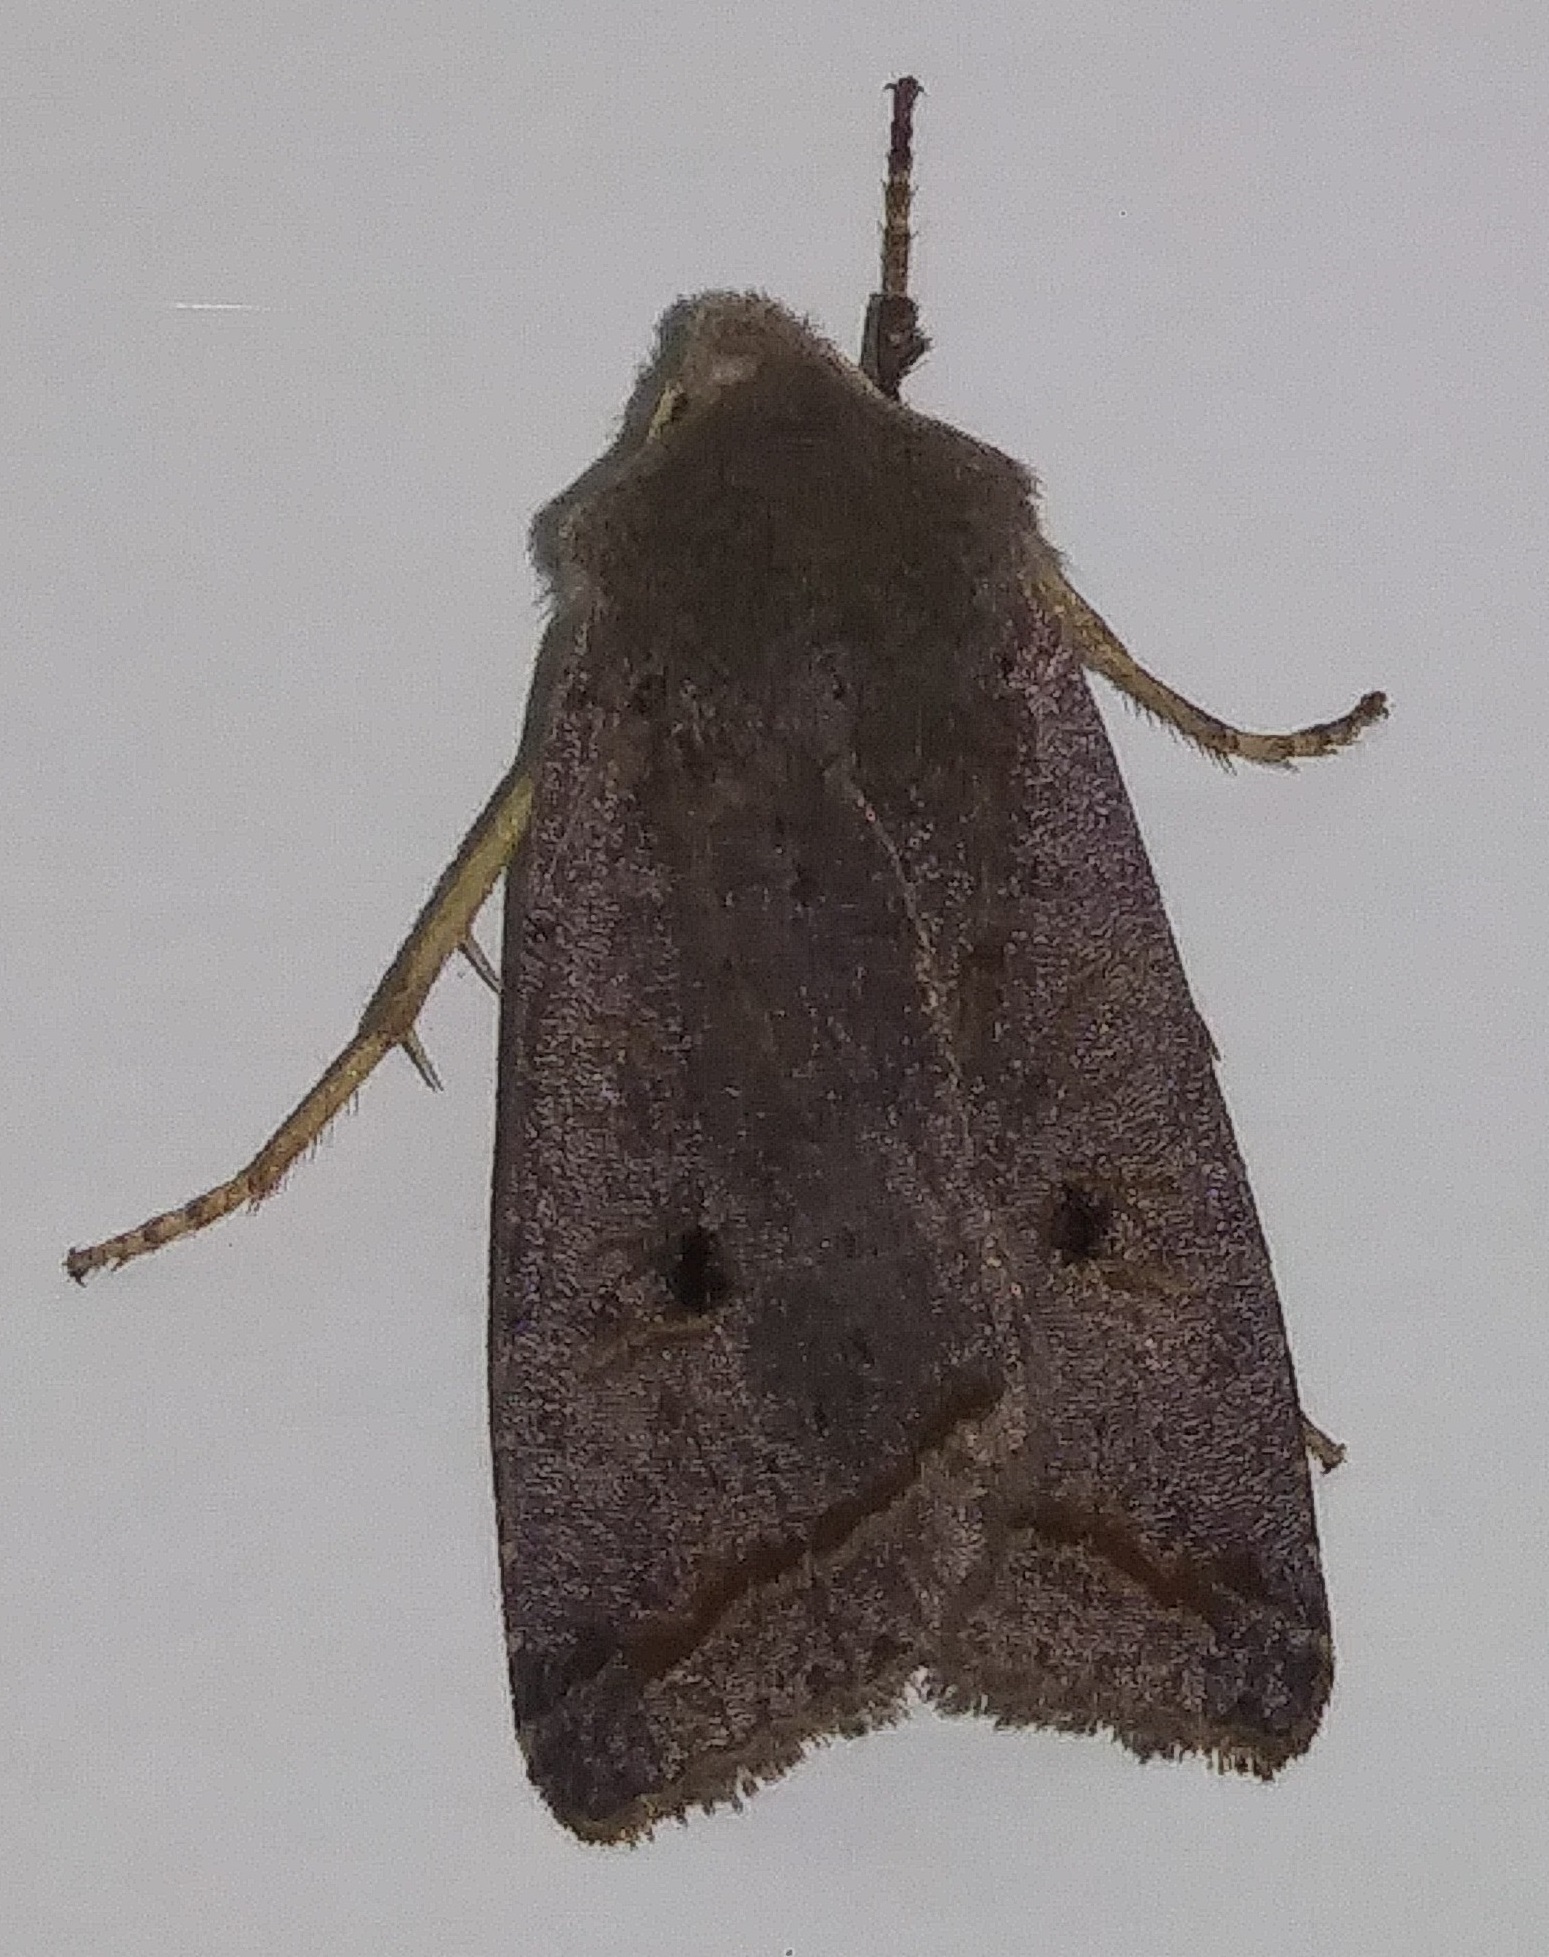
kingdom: Animalia
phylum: Arthropoda
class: Insecta
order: Lepidoptera
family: Noctuidae
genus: Agrochola
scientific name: Agrochola lota
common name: Red-line quaker
